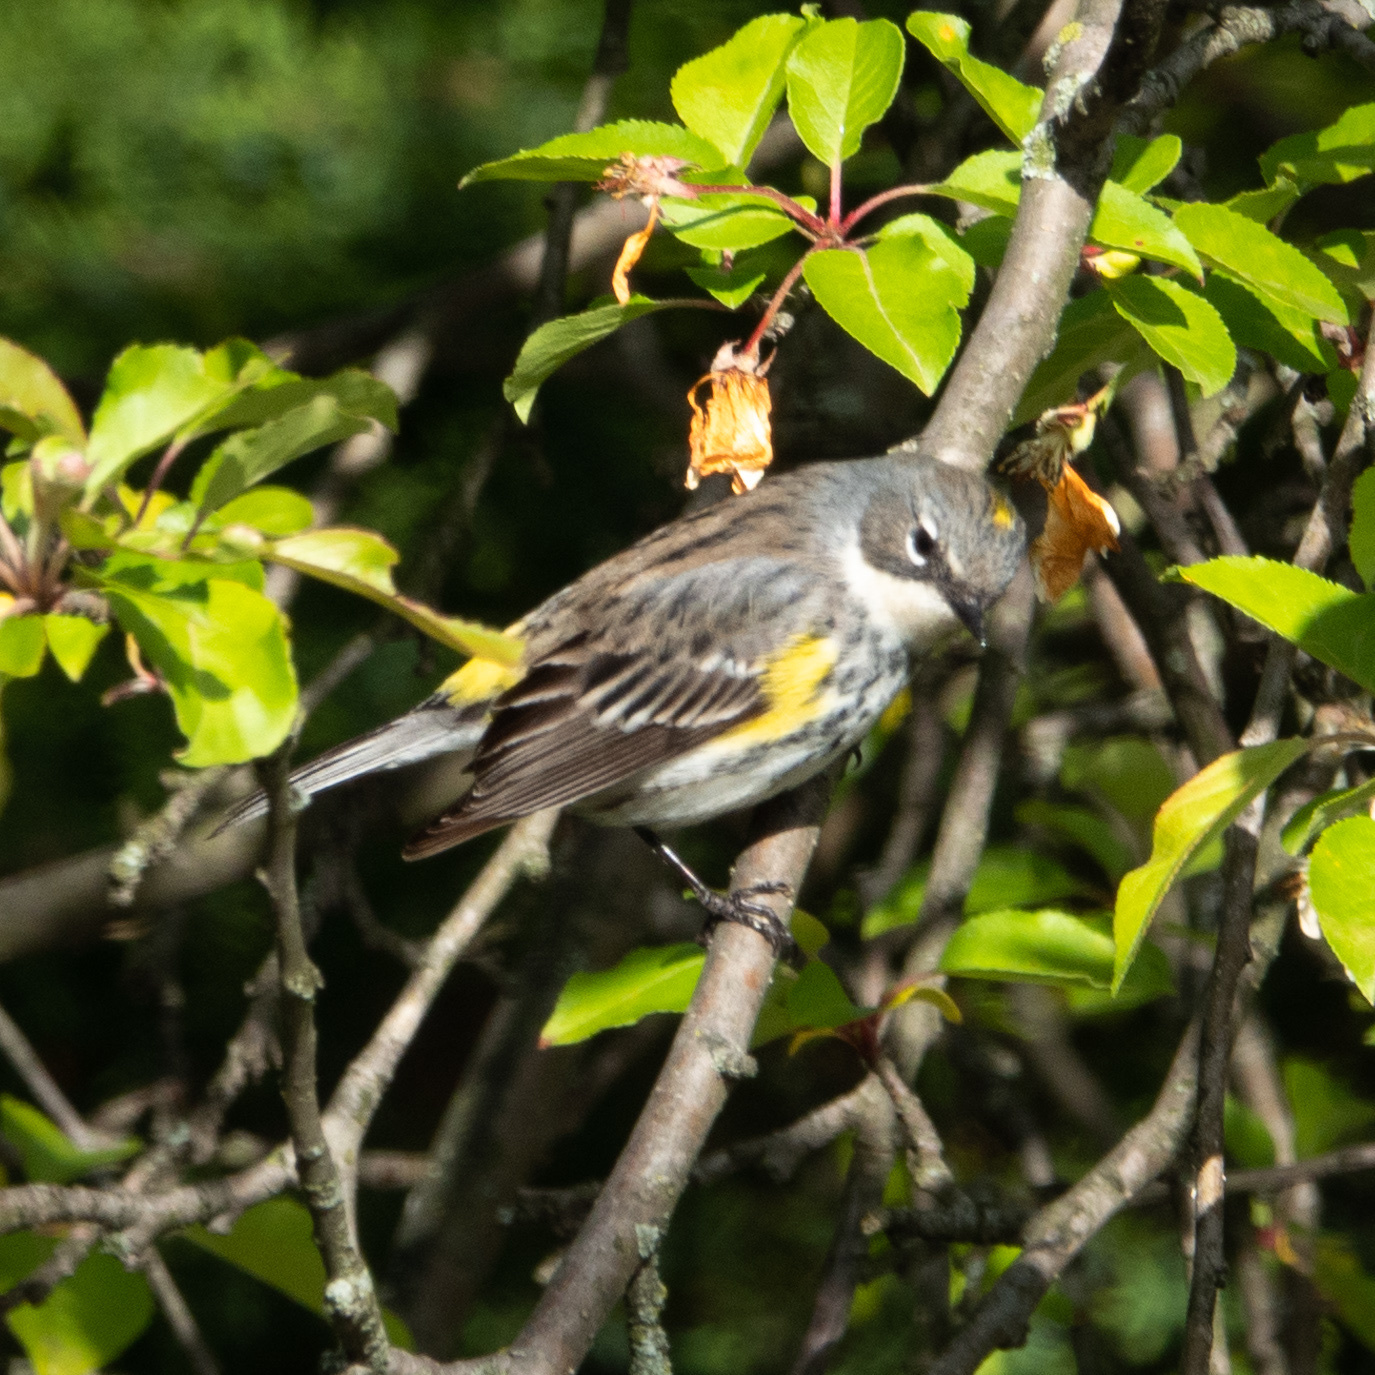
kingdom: Animalia
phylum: Chordata
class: Aves
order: Passeriformes
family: Parulidae
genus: Setophaga
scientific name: Setophaga coronata
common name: Myrtle warbler
